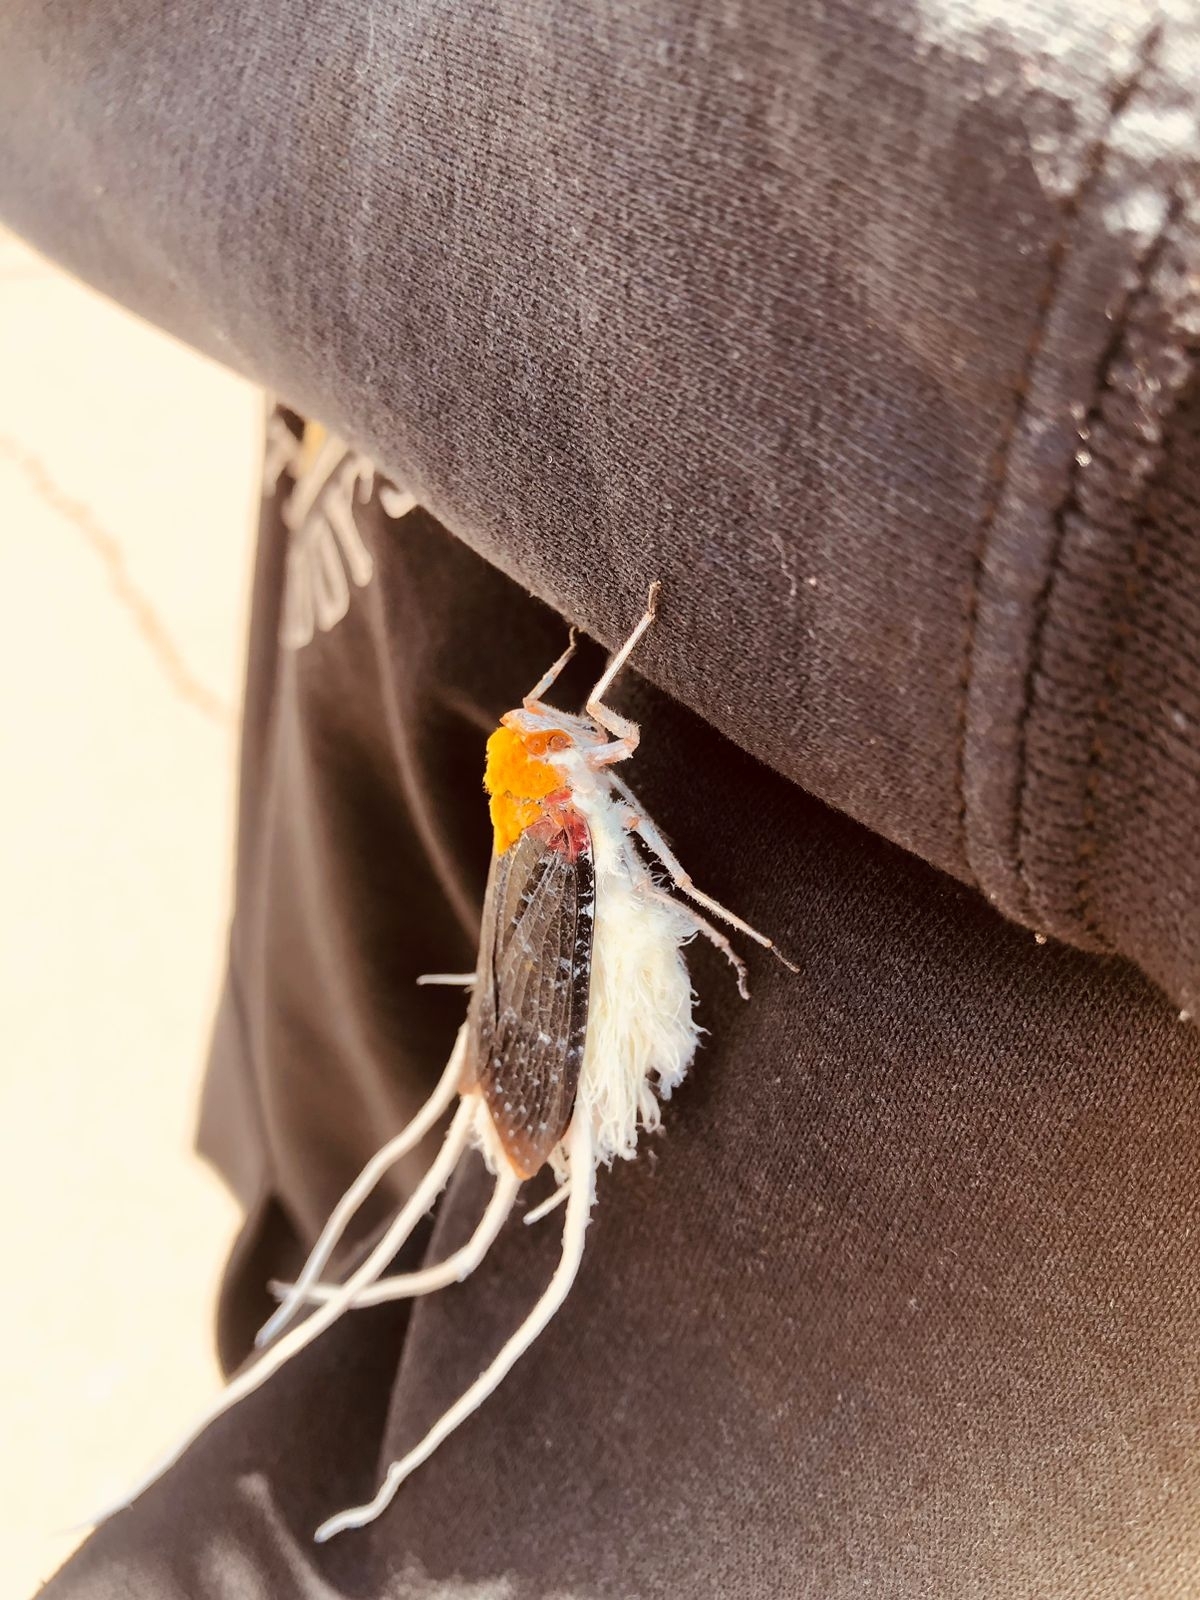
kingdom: Animalia
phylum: Arthropoda
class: Insecta
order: Hemiptera
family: Fulgoridae
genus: Cerogenes
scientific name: Cerogenes auricoma
